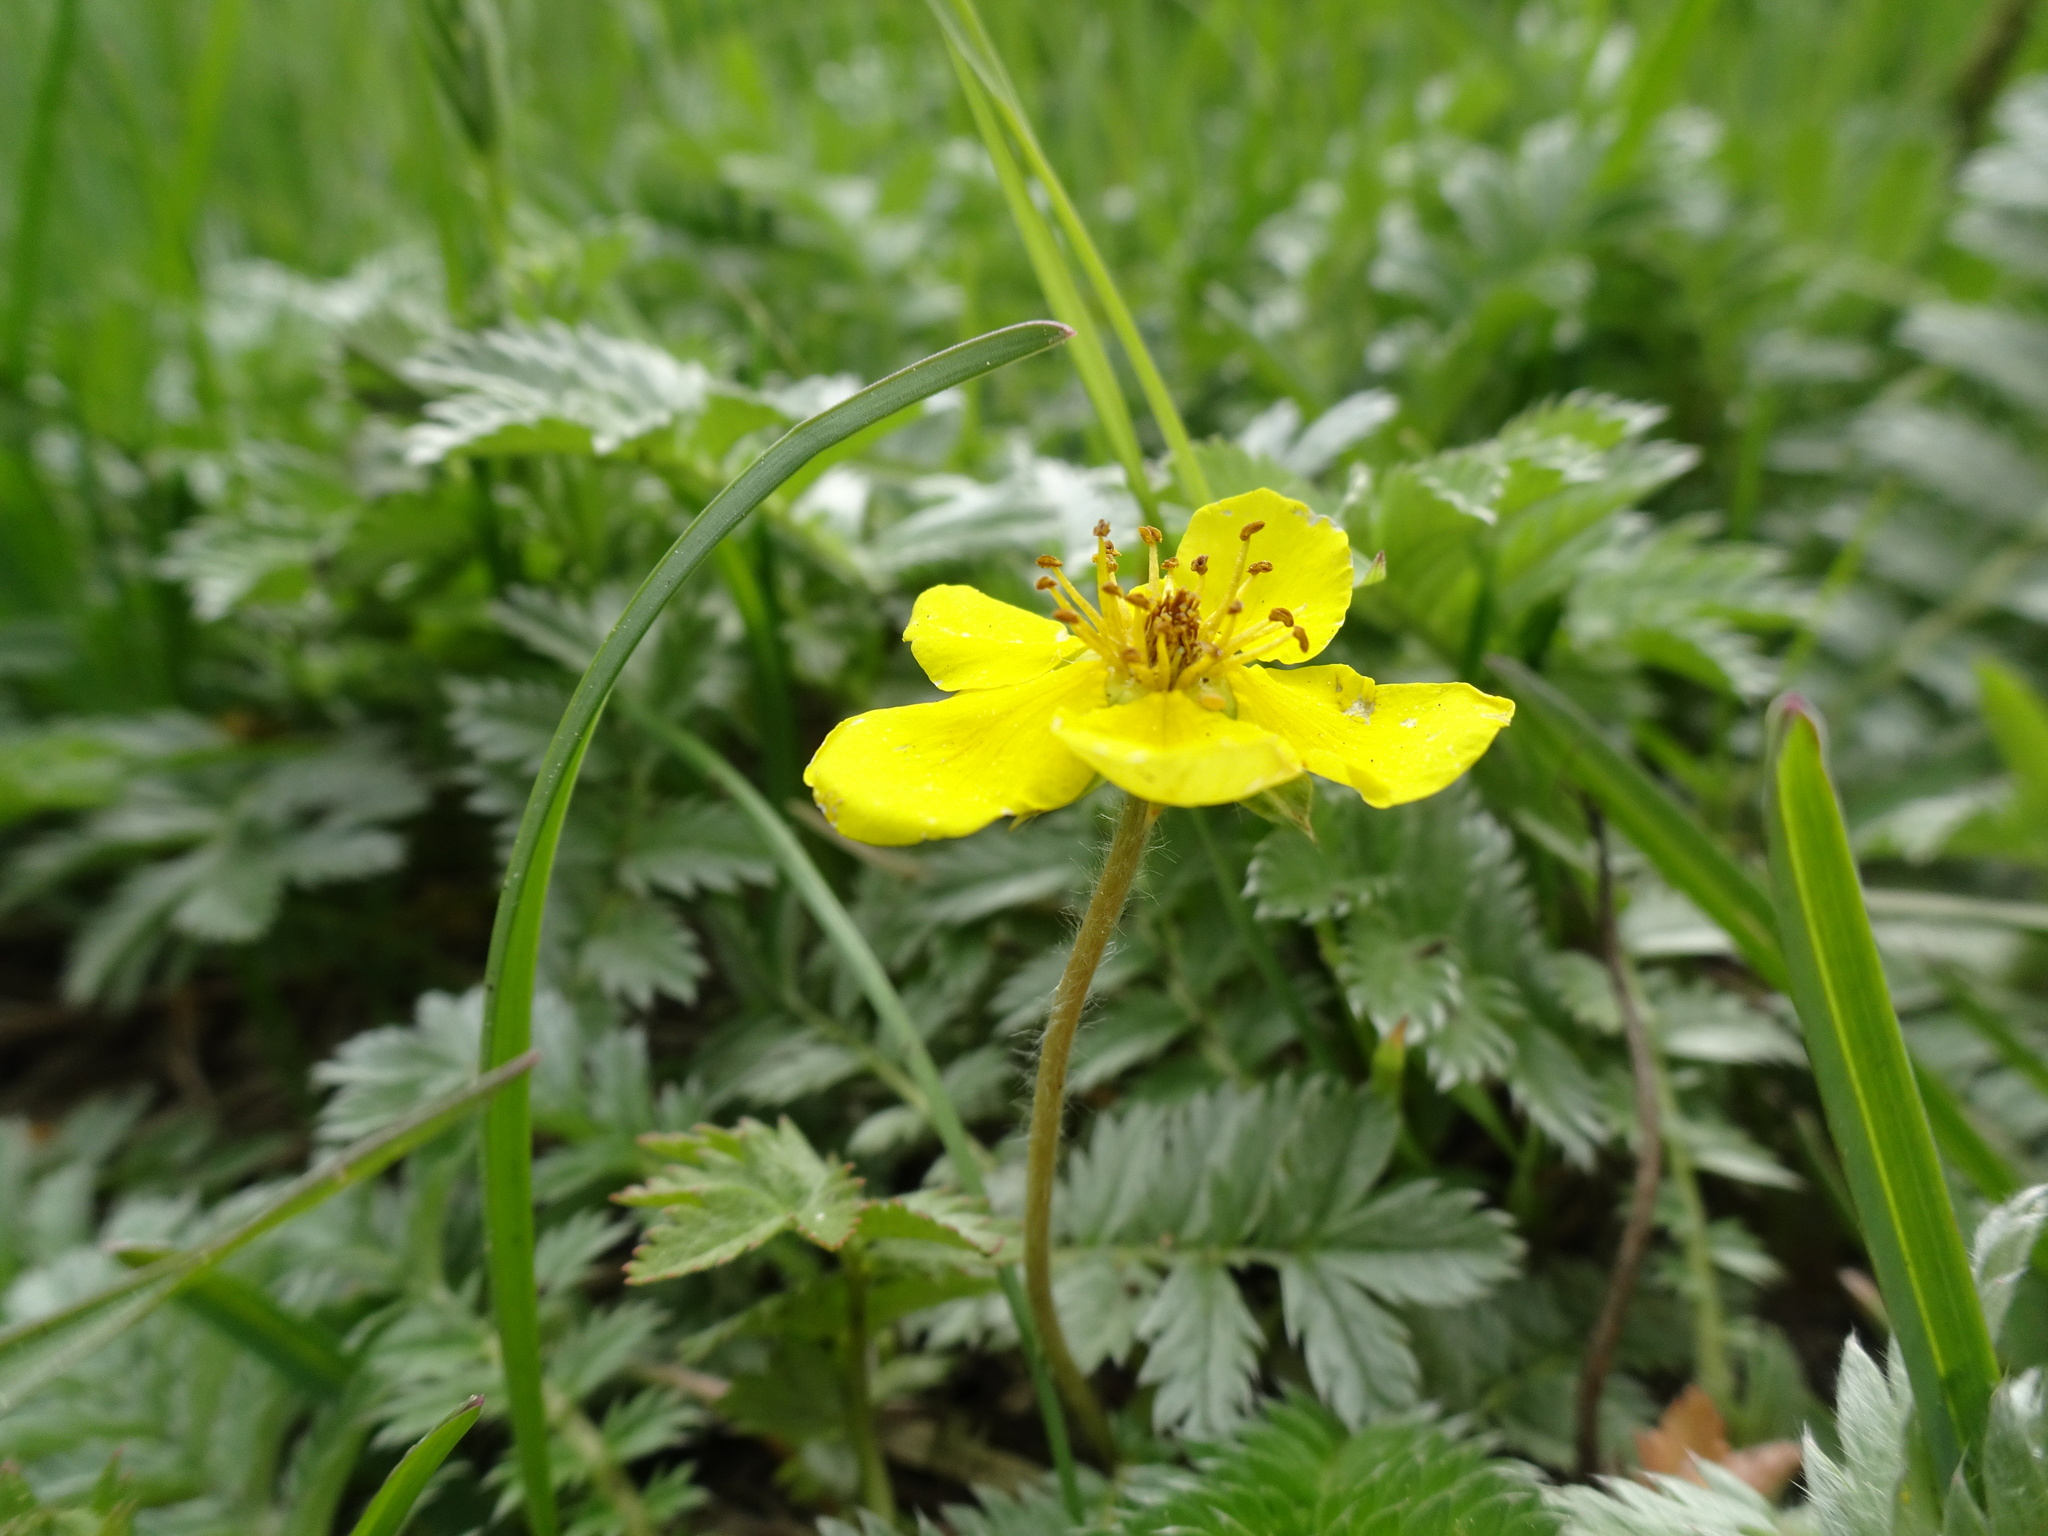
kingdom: Plantae
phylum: Tracheophyta
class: Magnoliopsida
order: Rosales
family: Rosaceae
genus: Argentina
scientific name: Argentina anserina
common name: Common silverweed
